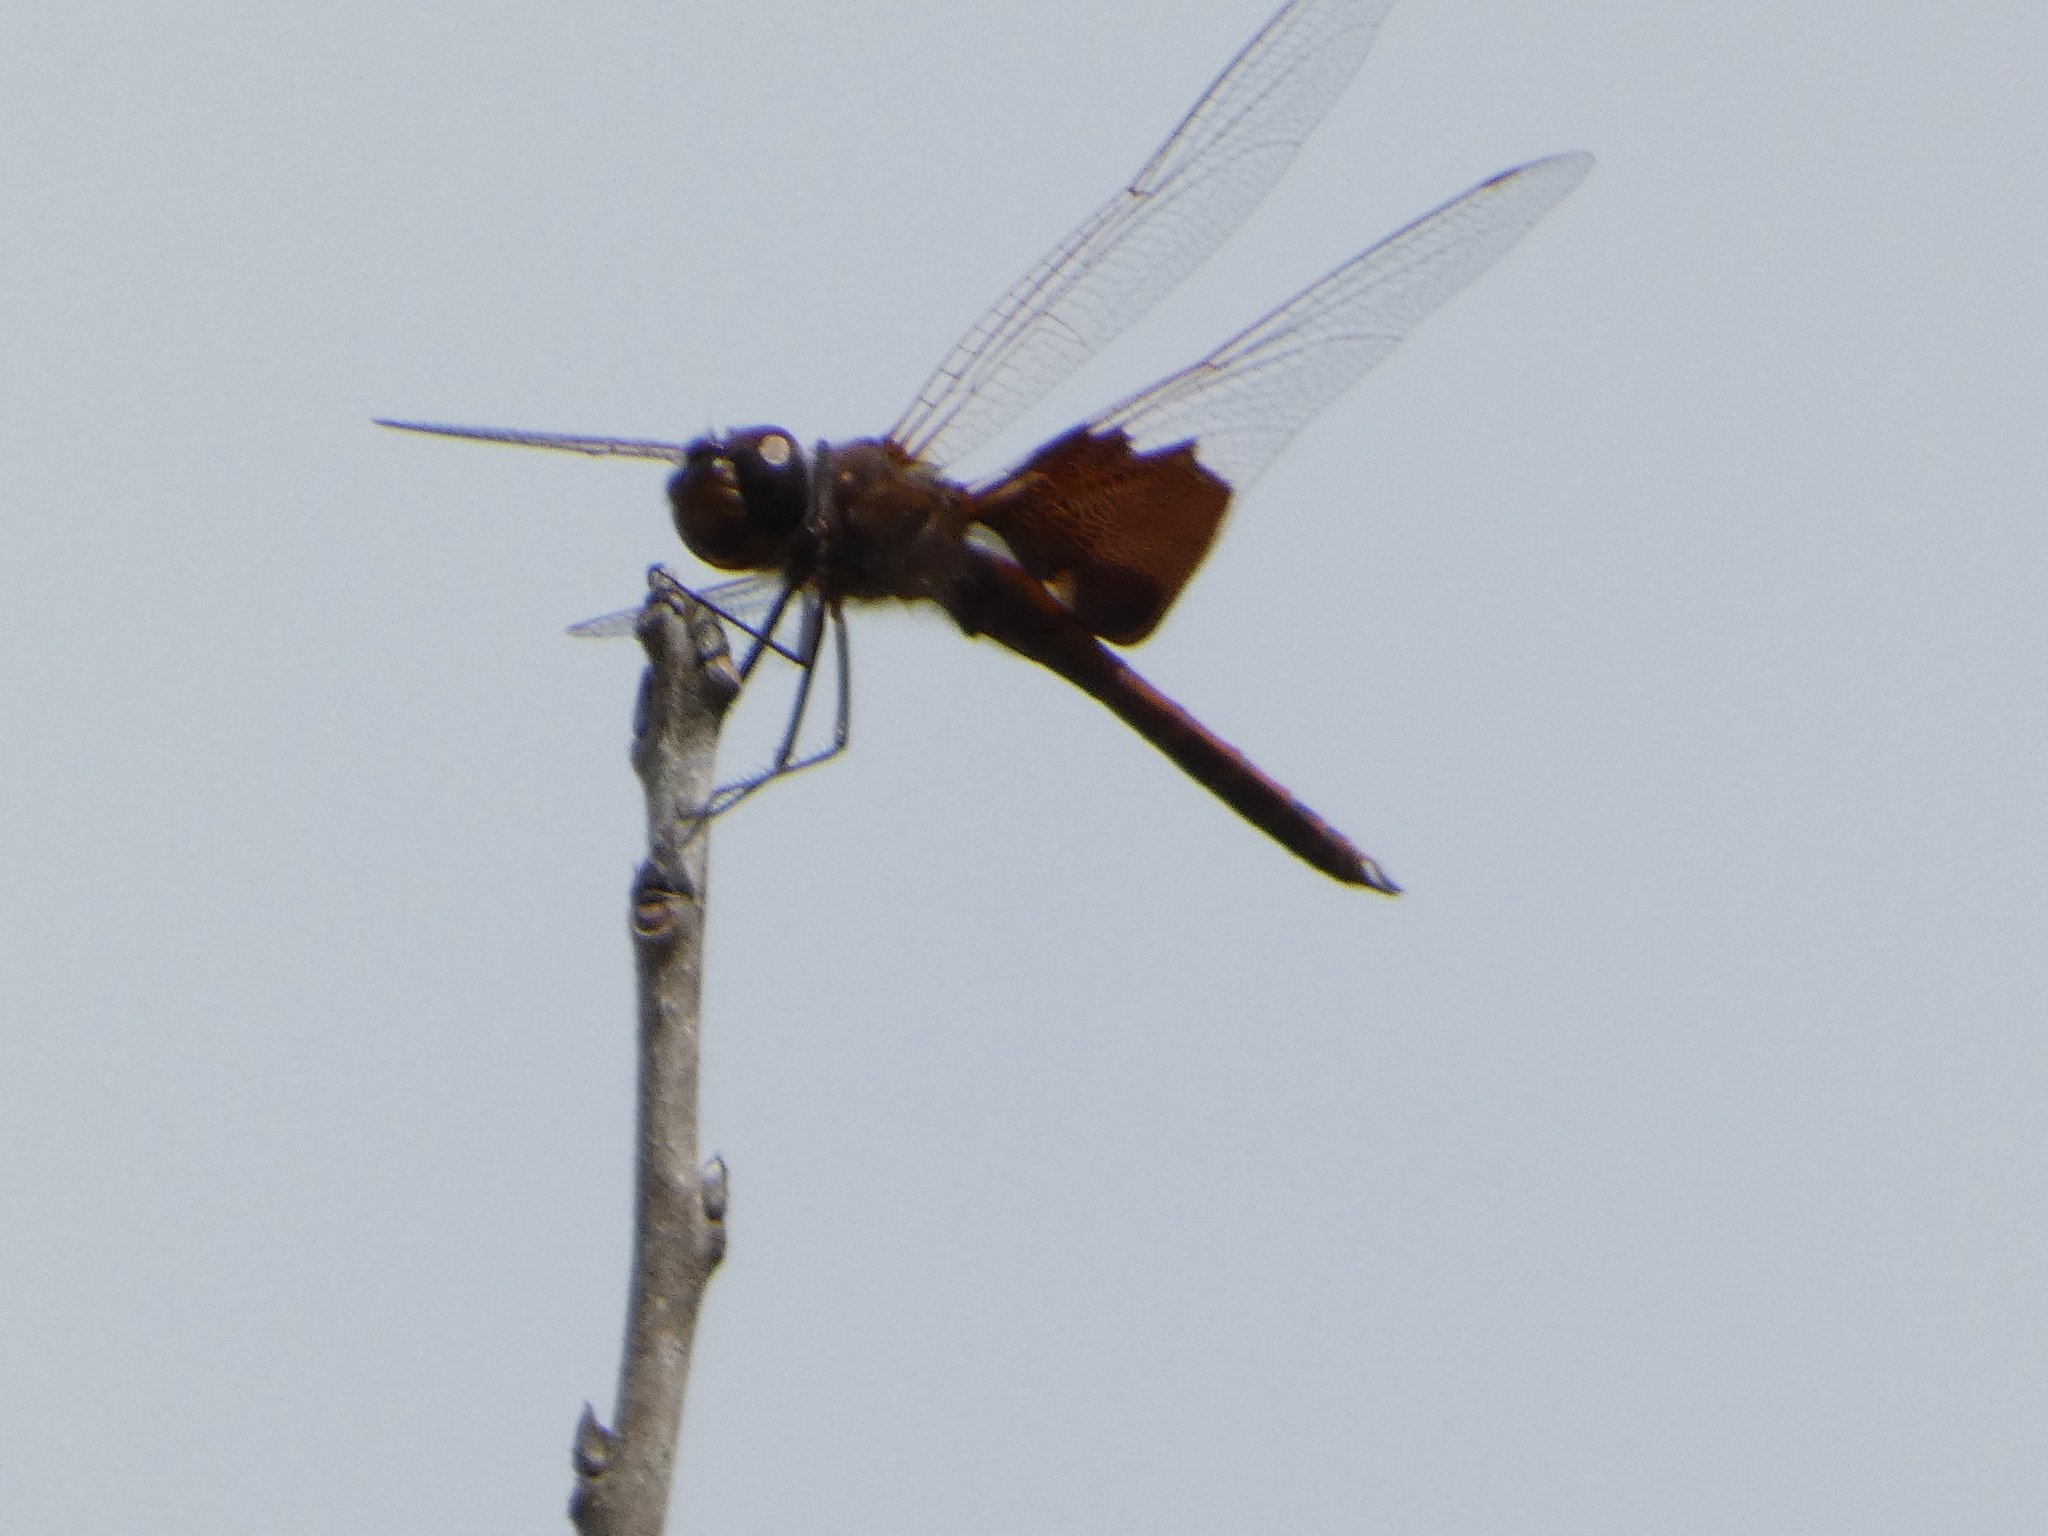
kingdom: Animalia
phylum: Arthropoda
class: Insecta
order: Odonata
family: Libellulidae
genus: Tramea
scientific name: Tramea carolina
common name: Carolina saddlebags
